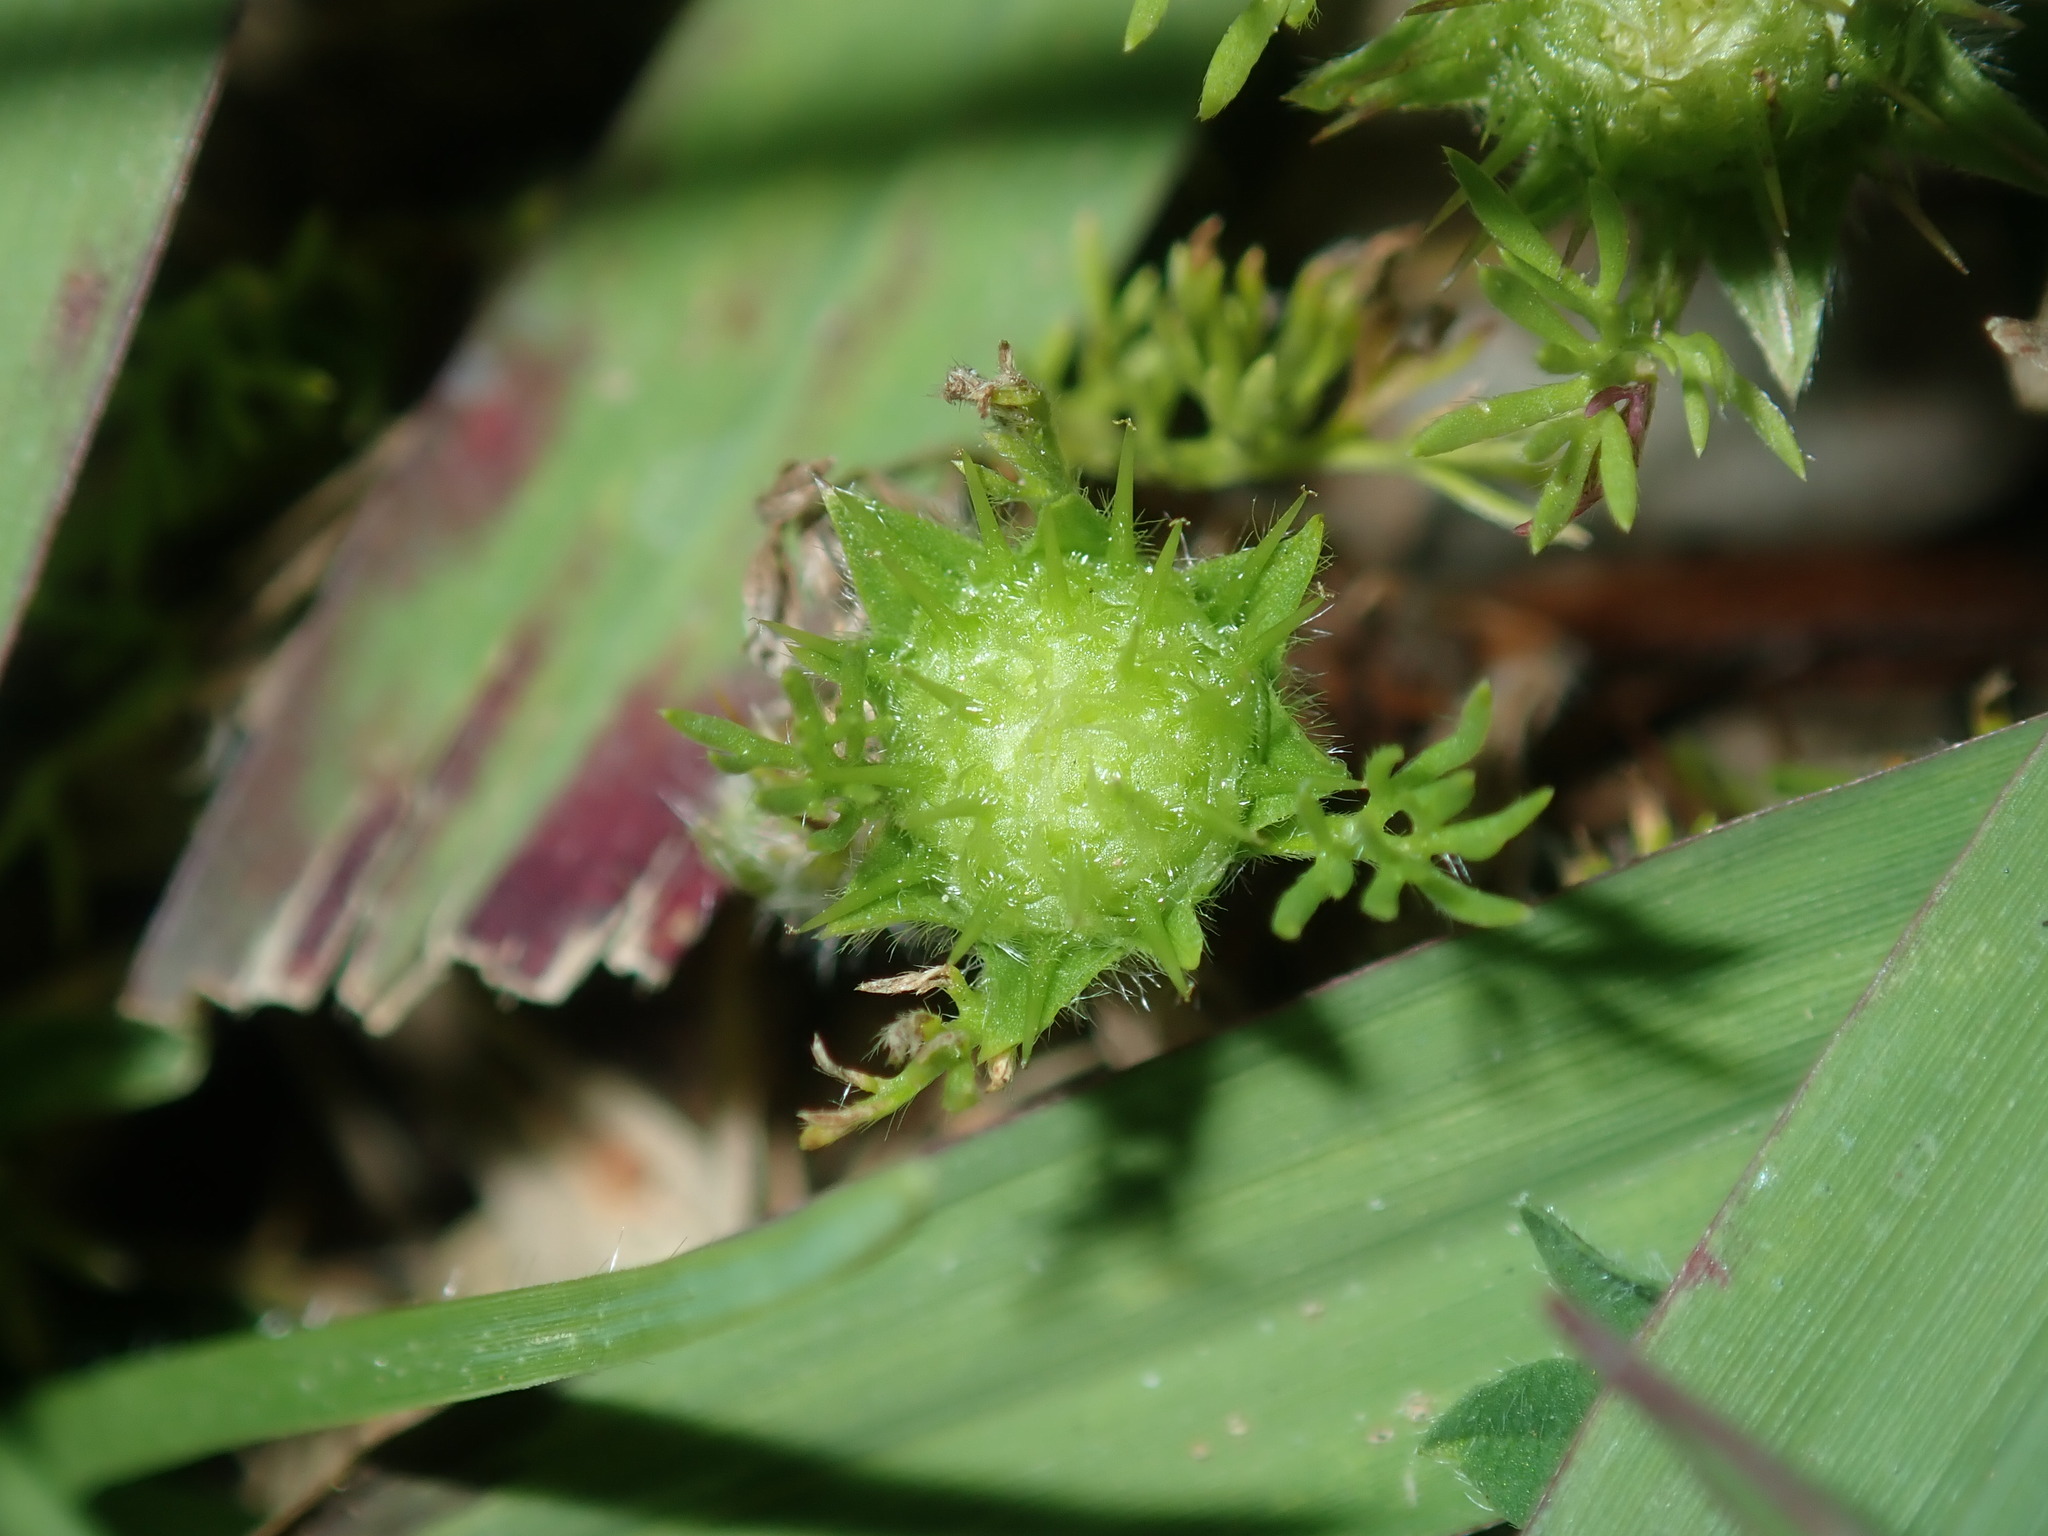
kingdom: Plantae
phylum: Tracheophyta
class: Magnoliopsida
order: Asterales
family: Asteraceae
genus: Soliva
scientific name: Soliva sessilis
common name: Field burrweed
